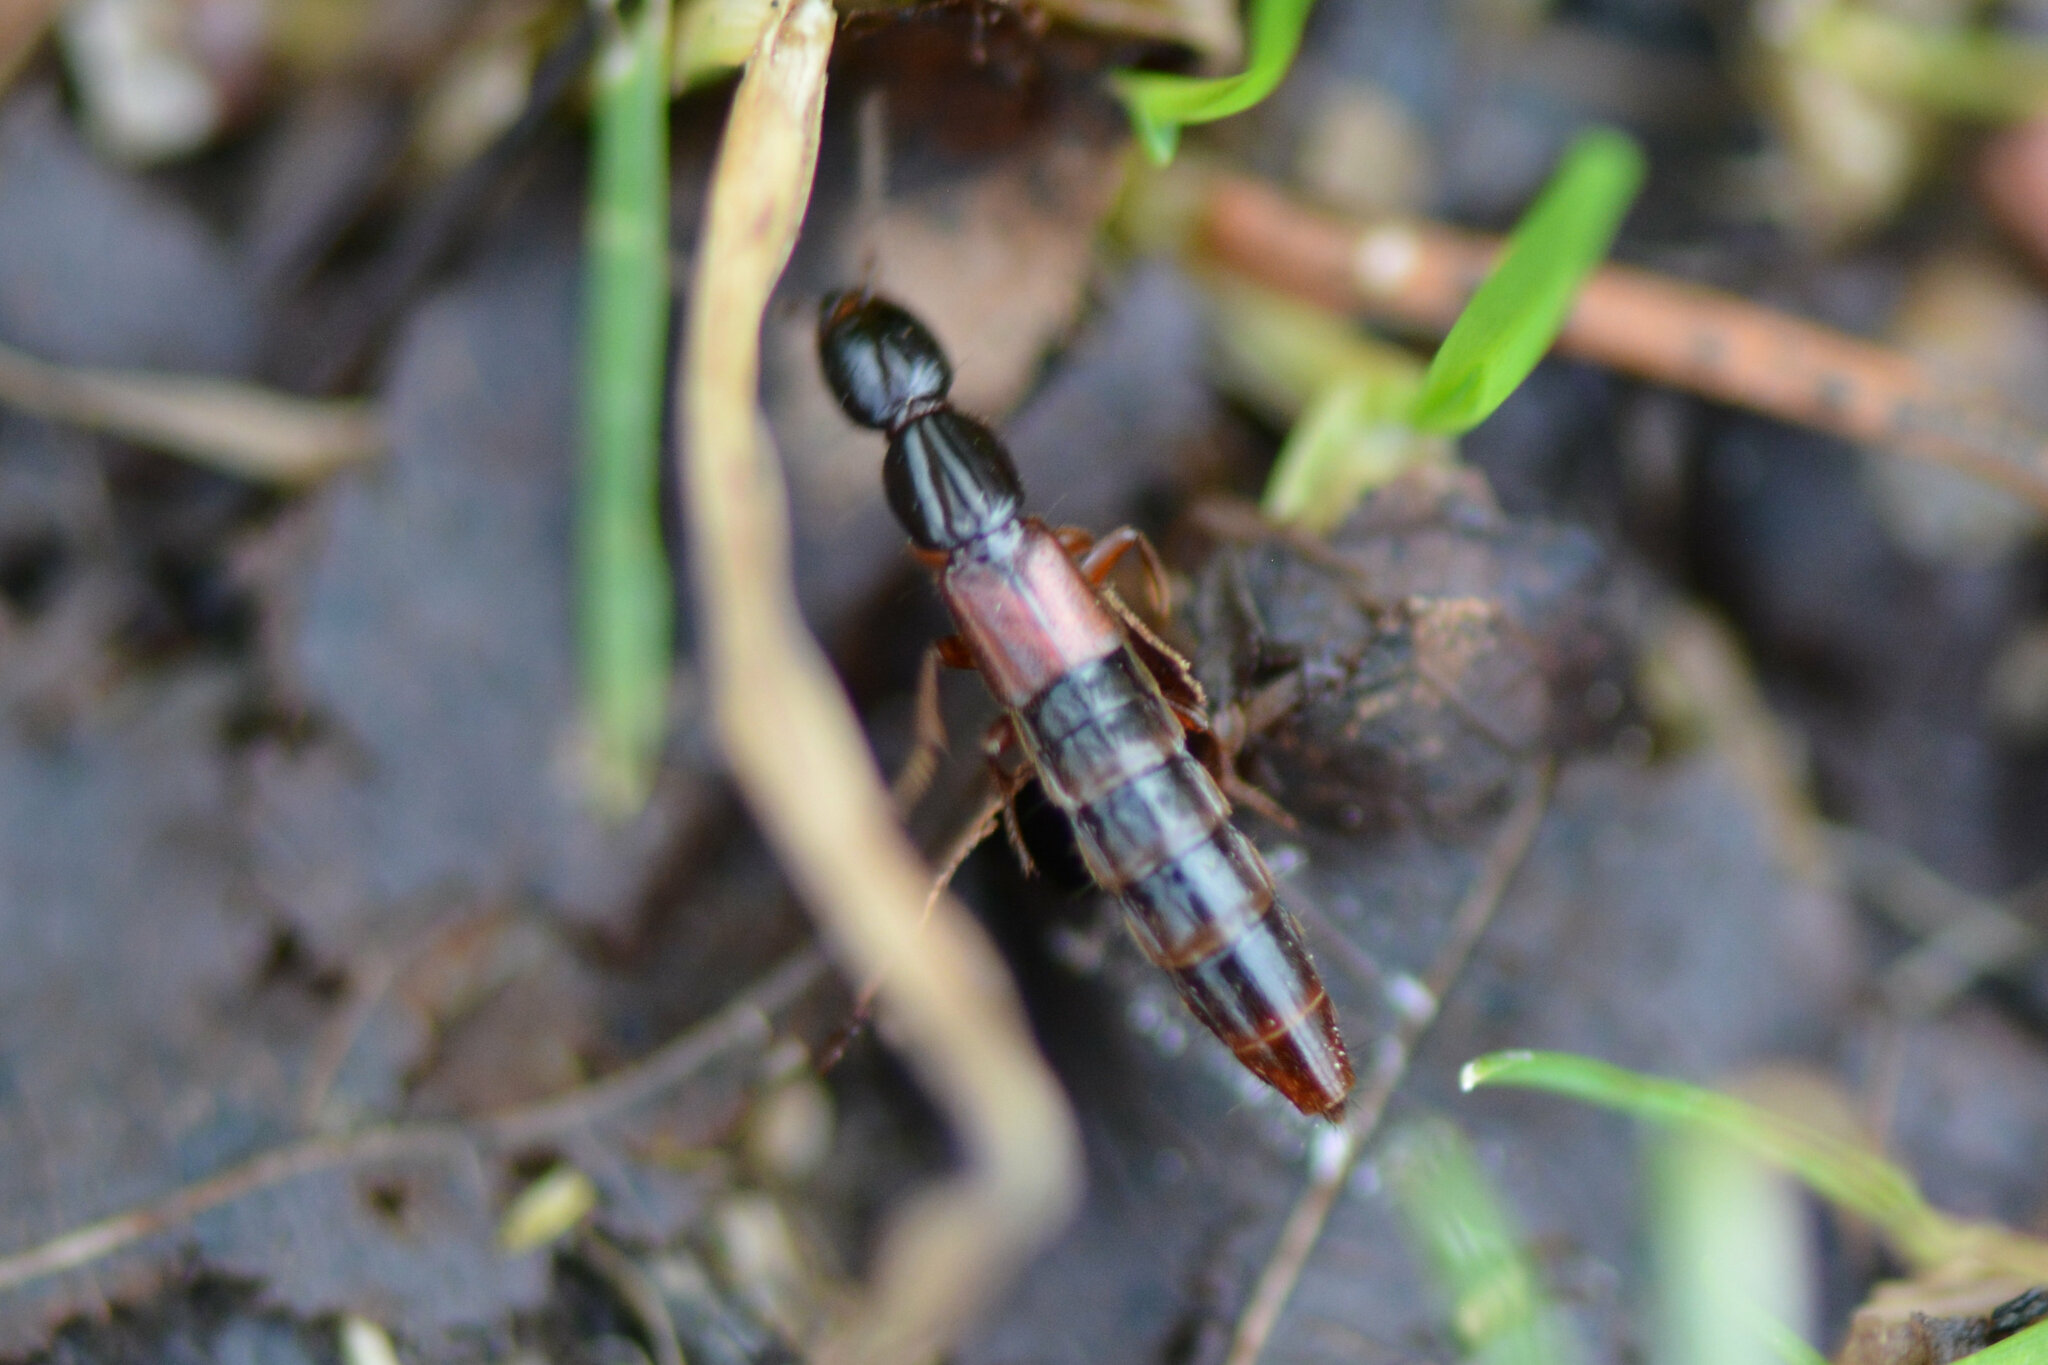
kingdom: Animalia
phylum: Arthropoda
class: Insecta
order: Coleoptera
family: Staphylinidae
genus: Othius
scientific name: Othius punctulatus
